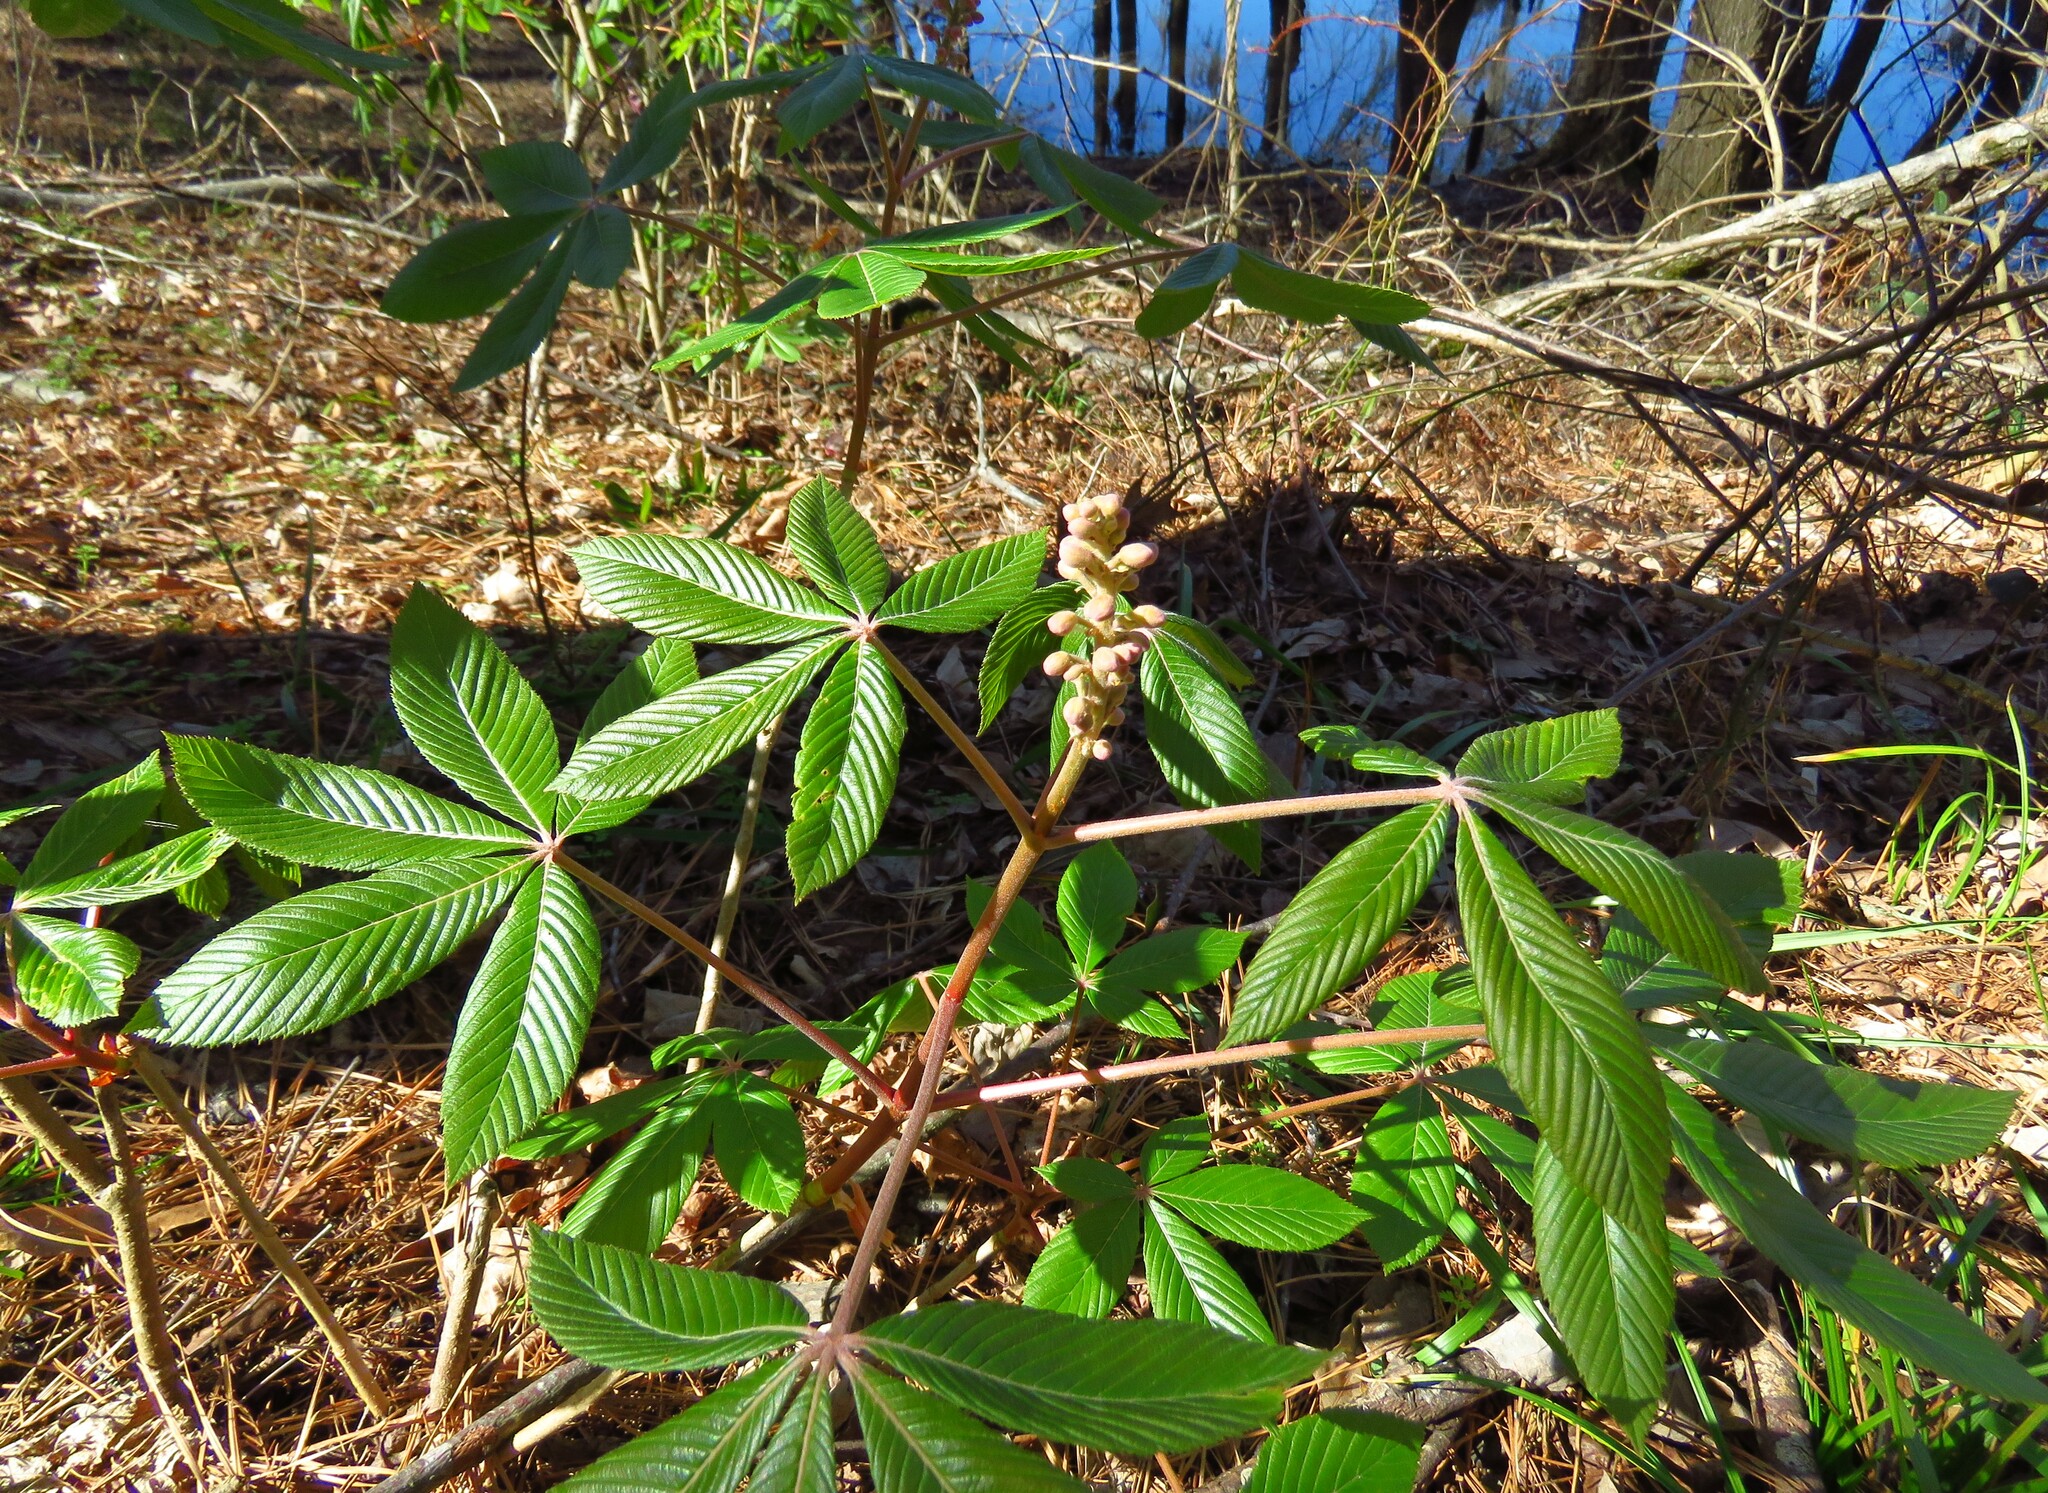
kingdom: Plantae
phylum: Tracheophyta
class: Magnoliopsida
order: Sapindales
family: Sapindaceae
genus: Aesculus
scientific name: Aesculus pavia
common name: Red buckeye
